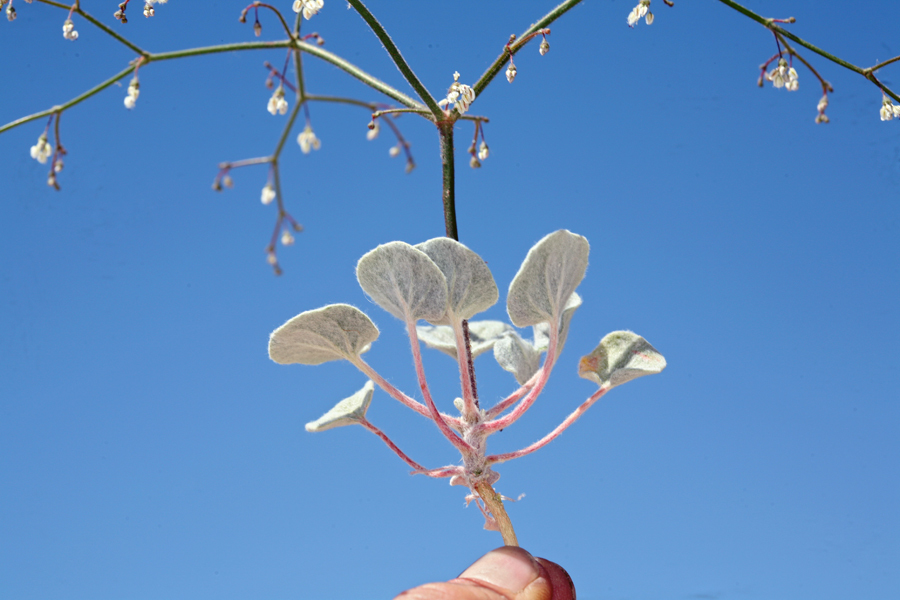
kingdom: Plantae
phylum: Tracheophyta
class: Magnoliopsida
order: Caryophyllales
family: Polygonaceae
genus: Eriogonum
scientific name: Eriogonum brachypodum
